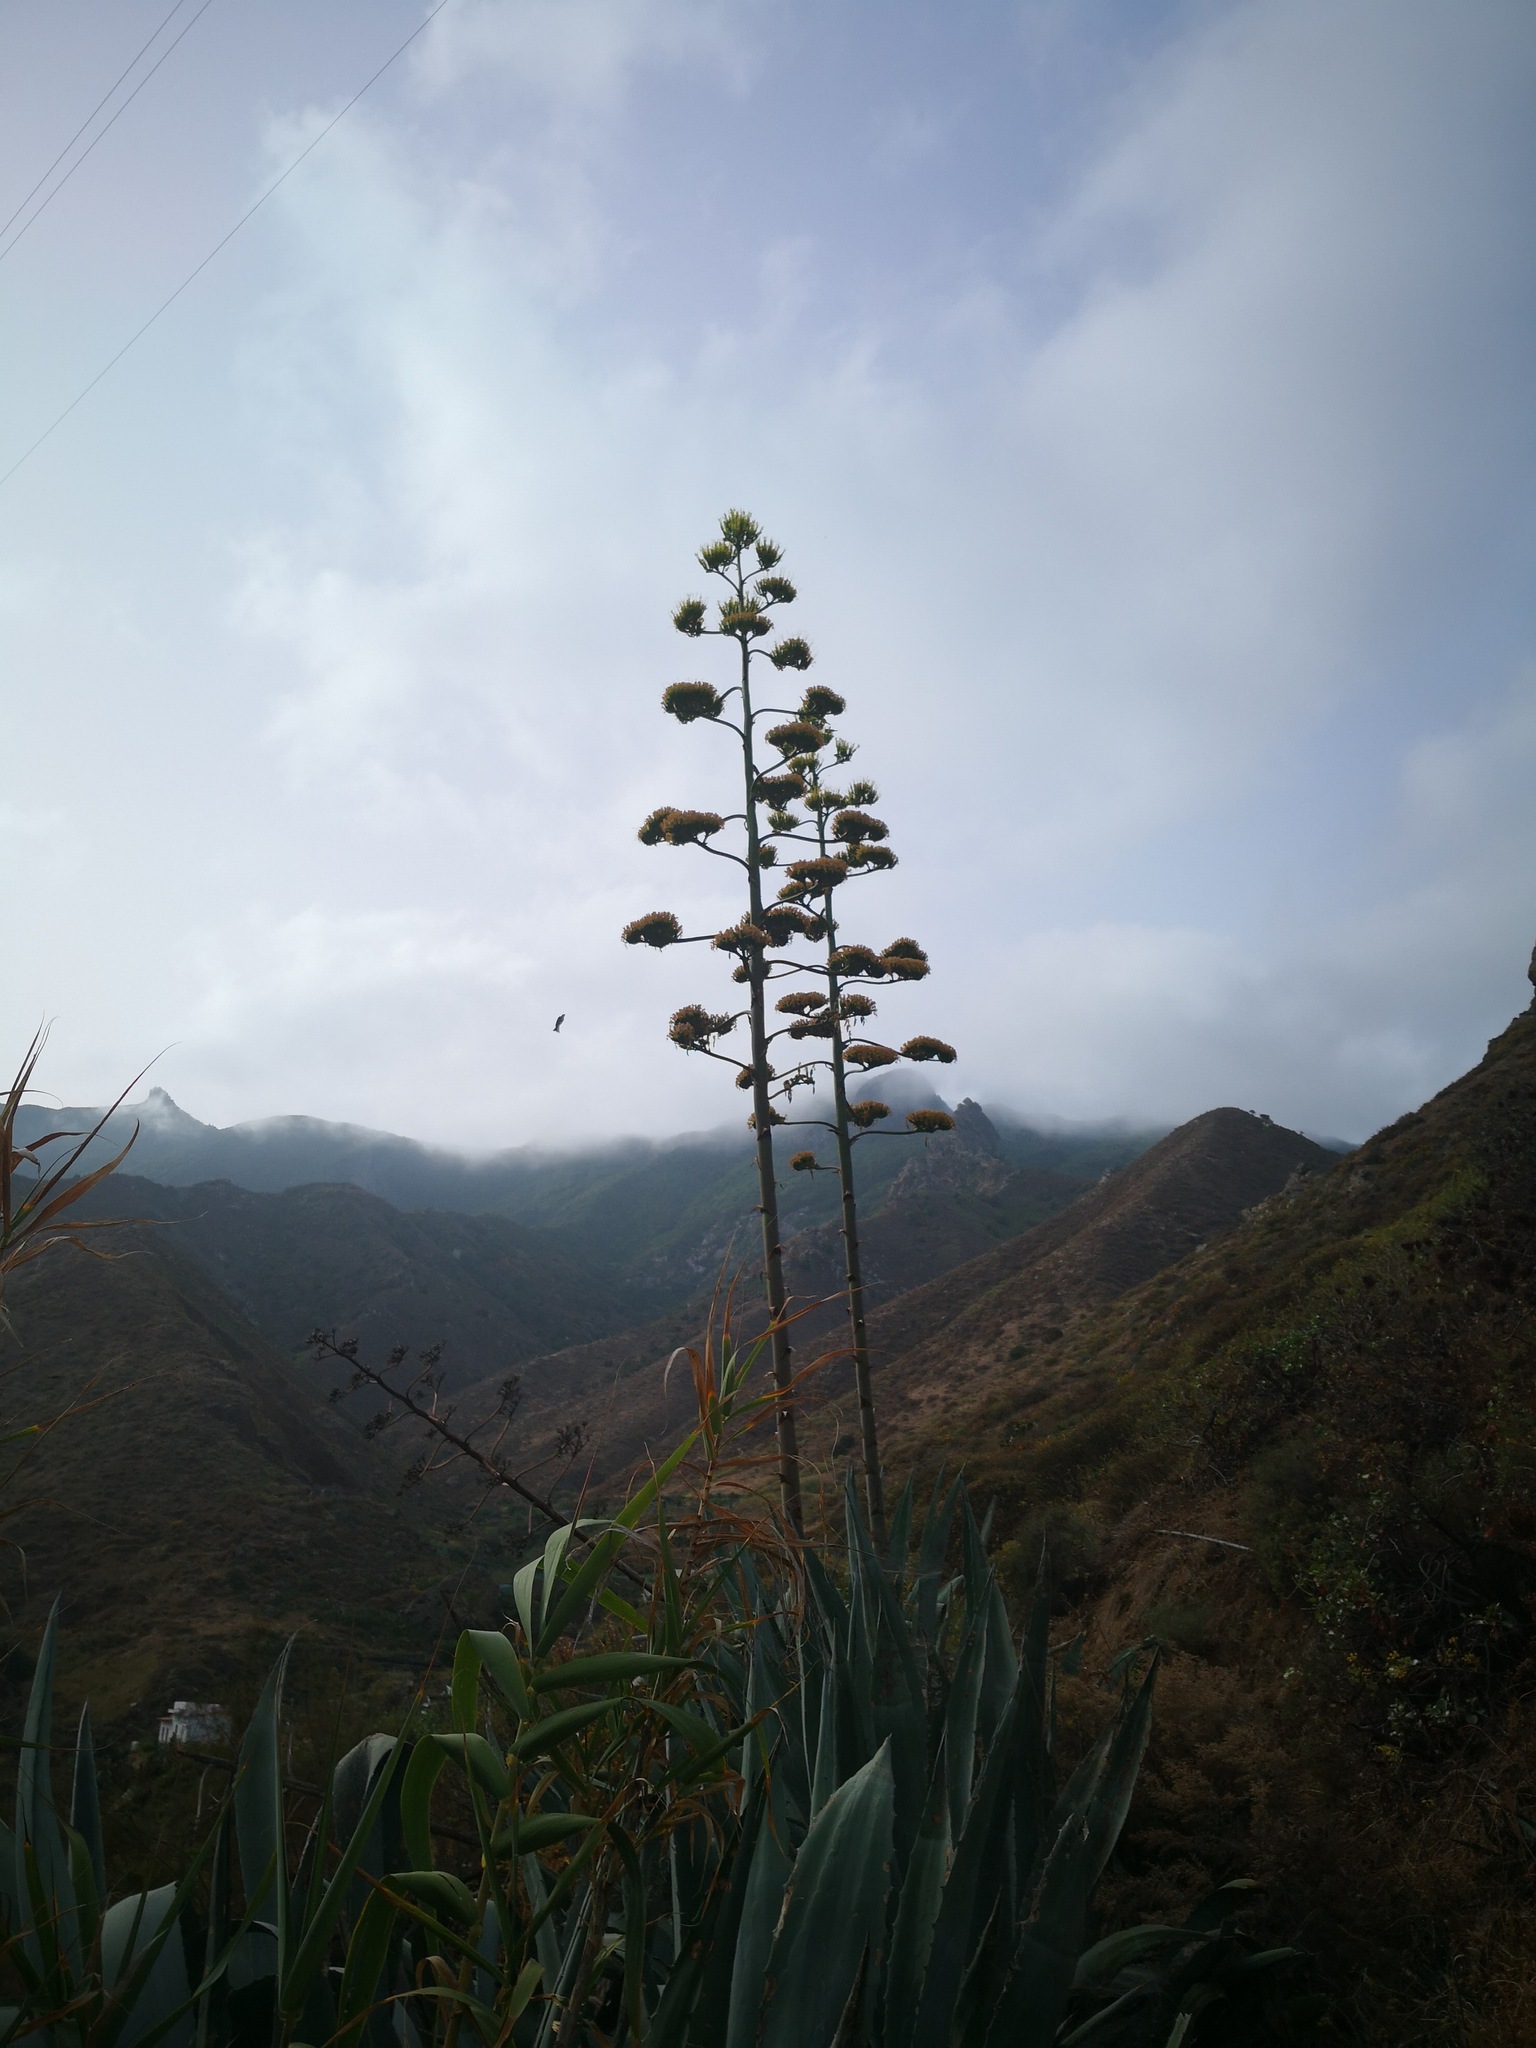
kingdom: Plantae
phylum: Tracheophyta
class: Liliopsida
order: Asparagales
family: Asparagaceae
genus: Agave
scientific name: Agave americana
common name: Centuryplant
